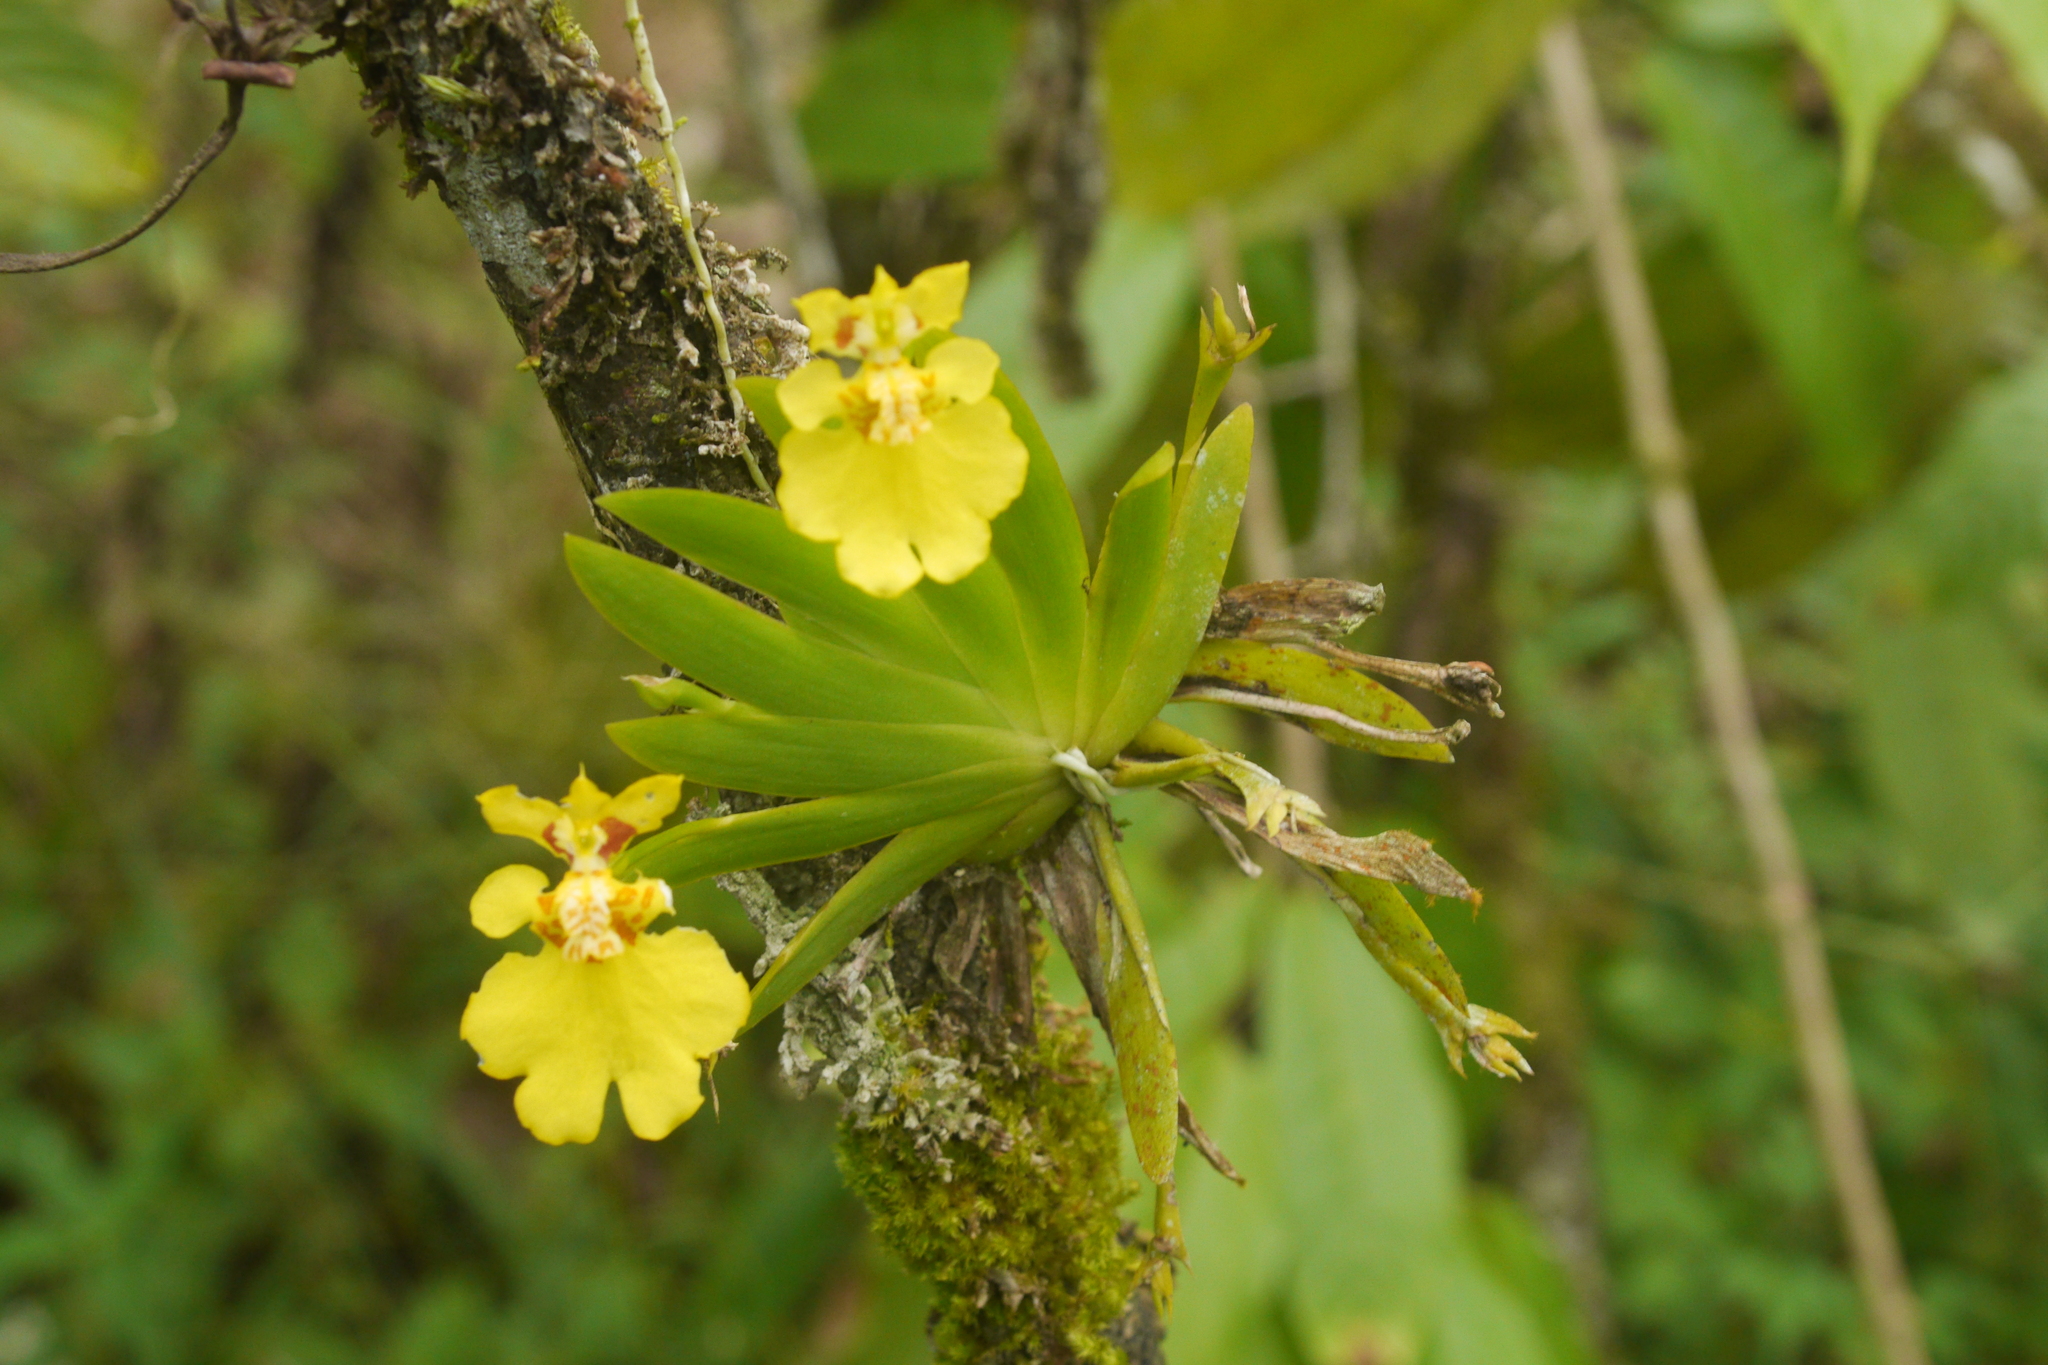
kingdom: Plantae
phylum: Tracheophyta
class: Liliopsida
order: Asparagales
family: Orchidaceae
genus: Erycina
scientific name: Erycina pusilla
